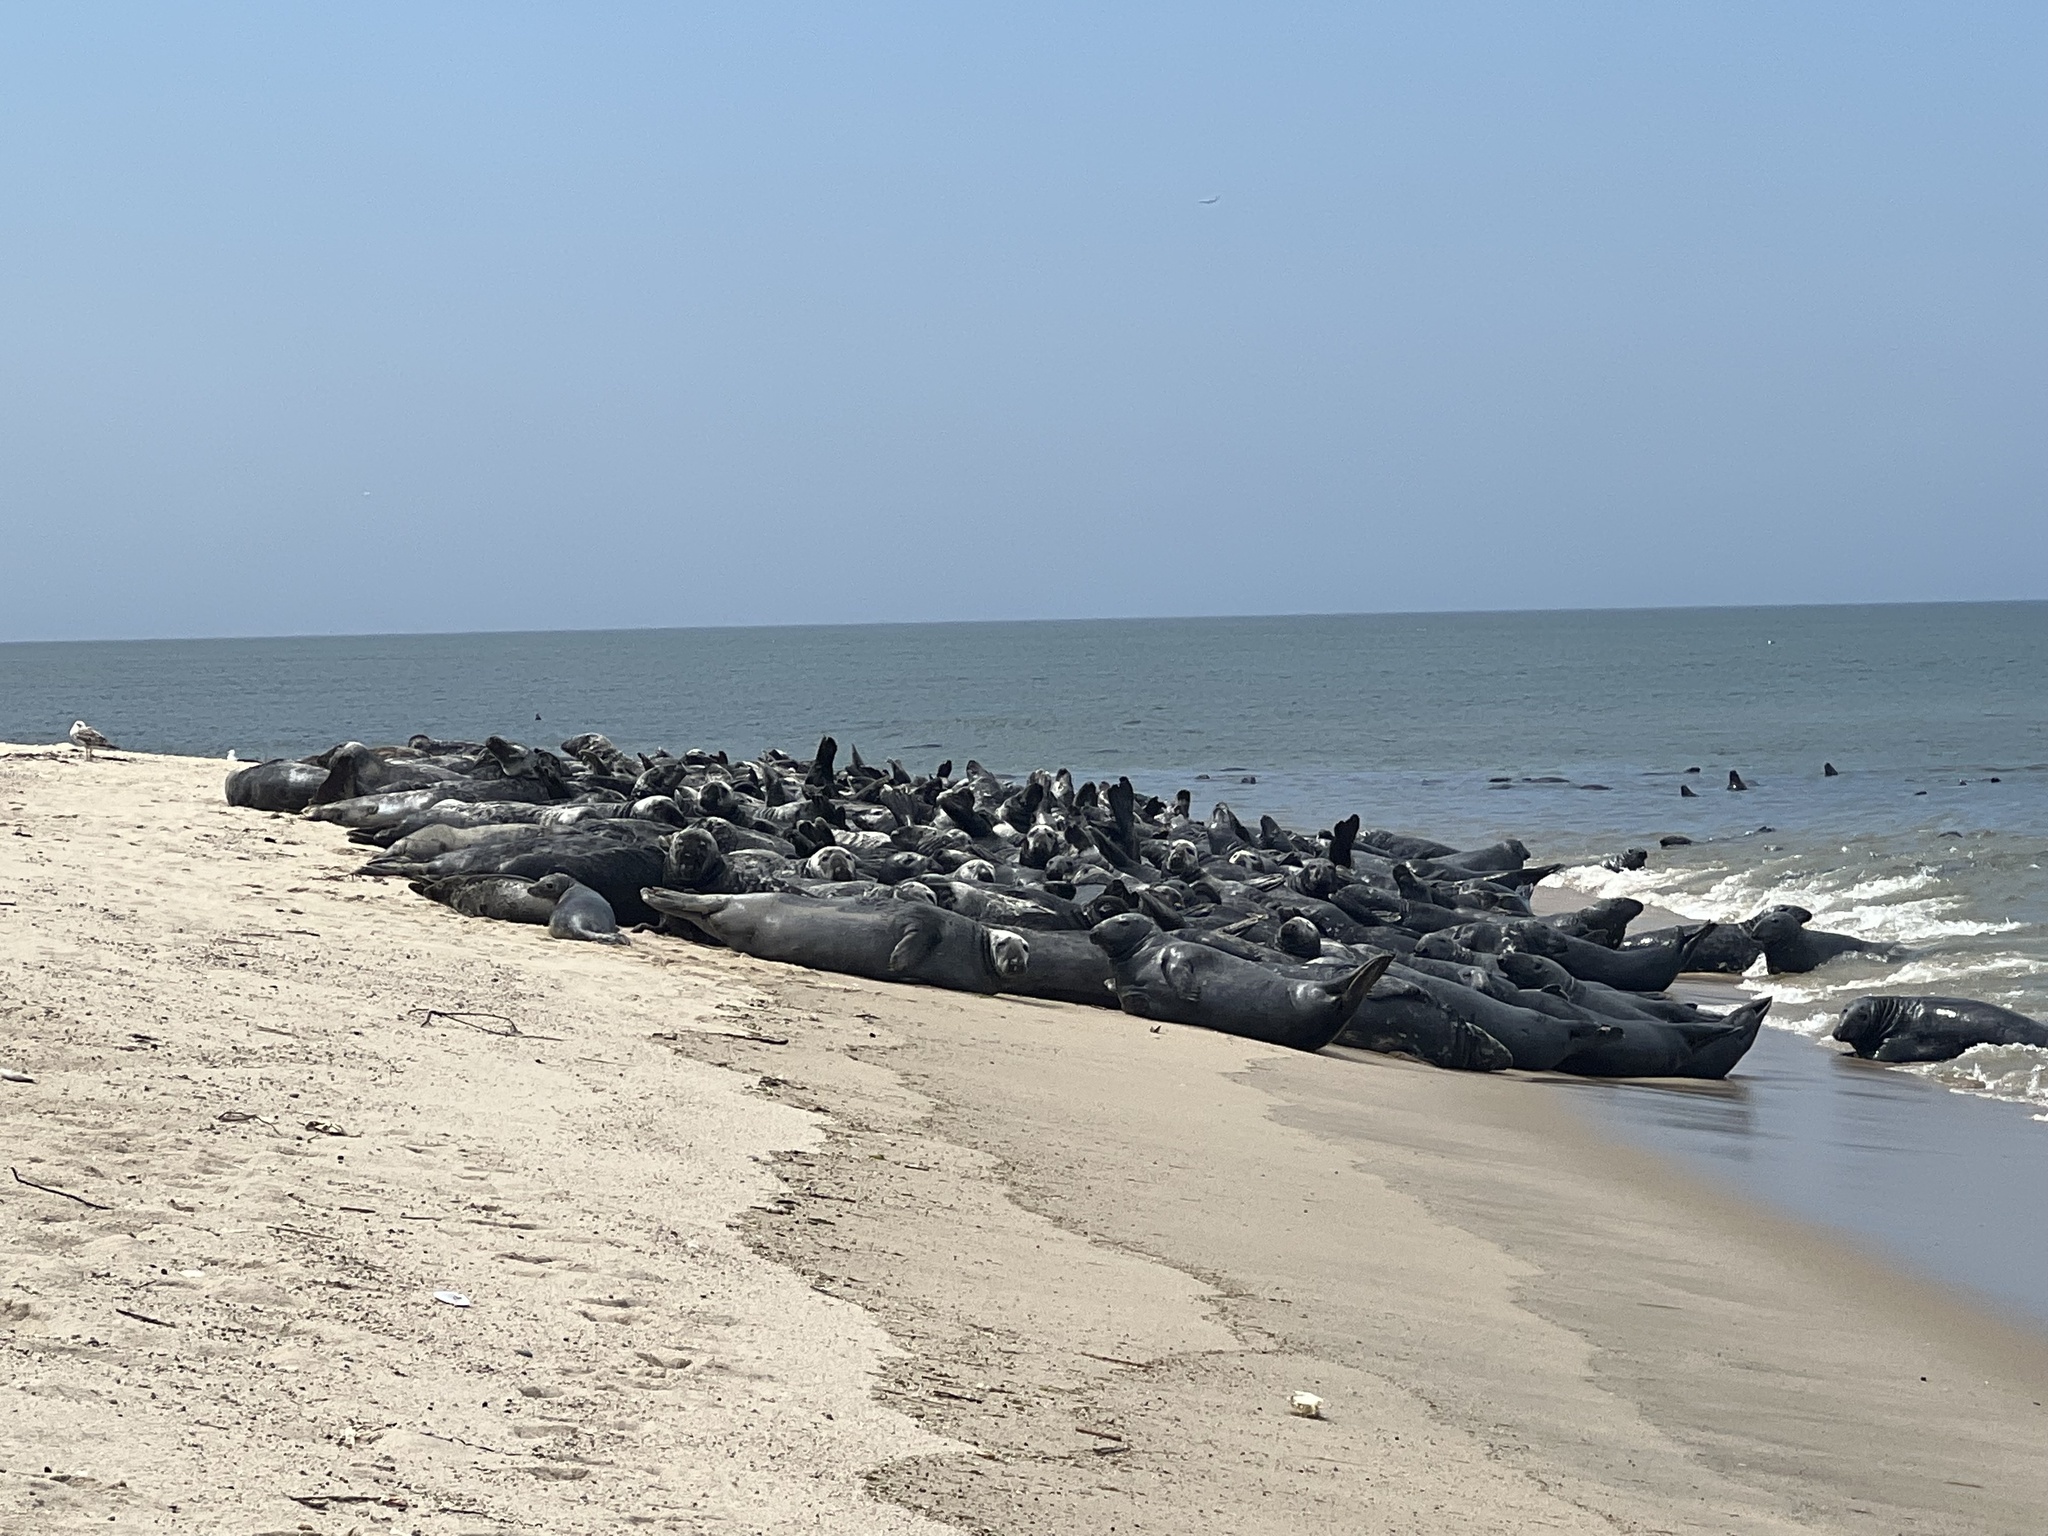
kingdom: Animalia
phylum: Chordata
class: Mammalia
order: Carnivora
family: Phocidae
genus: Halichoerus
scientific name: Halichoerus grypus
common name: Grey seal
